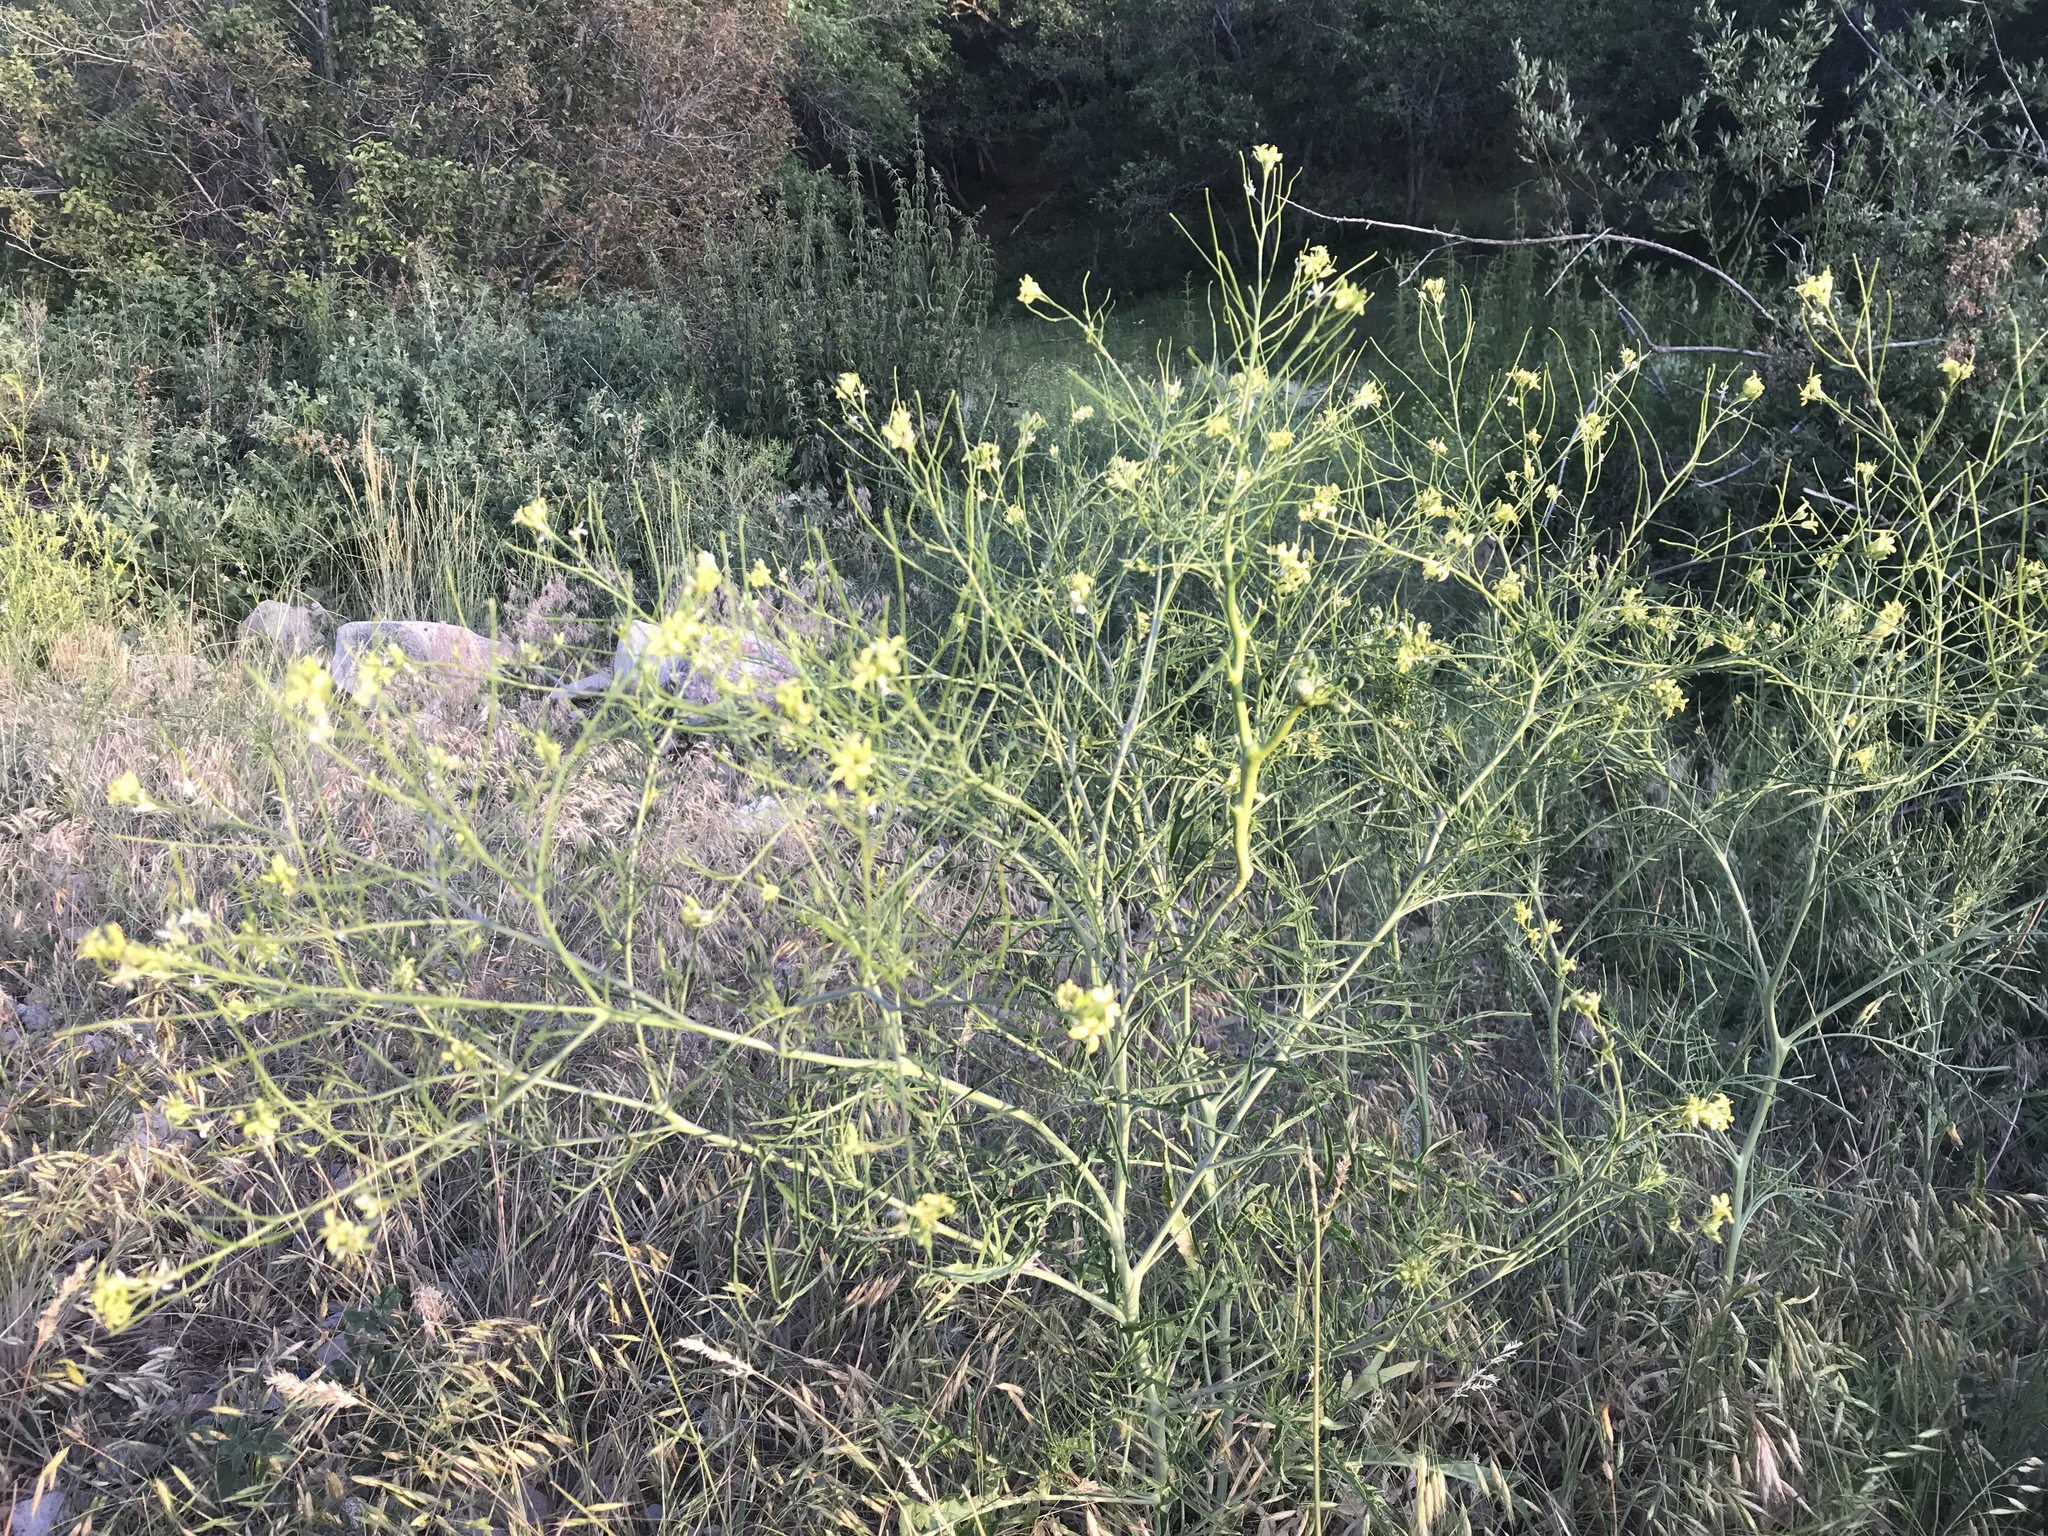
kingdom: Plantae
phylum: Tracheophyta
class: Magnoliopsida
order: Brassicales
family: Brassicaceae
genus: Sisymbrium
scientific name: Sisymbrium altissimum
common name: Tall rocket
